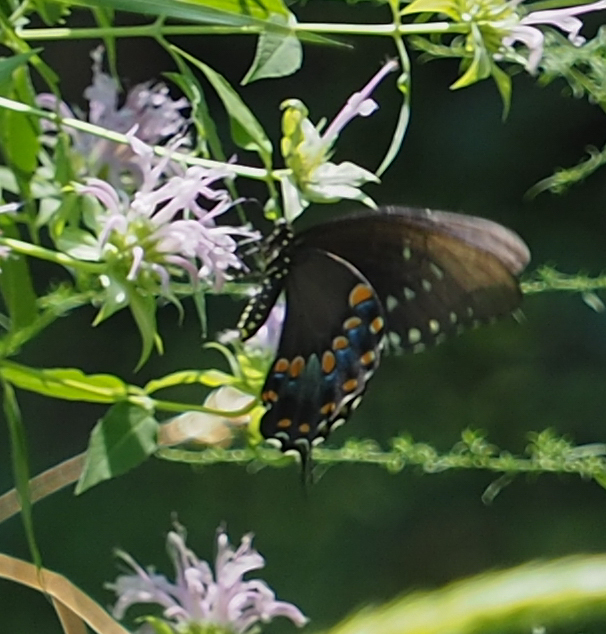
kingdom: Animalia
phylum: Arthropoda
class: Insecta
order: Lepidoptera
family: Papilionidae
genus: Papilio
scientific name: Papilio troilus
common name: Spicebush swallowtail
